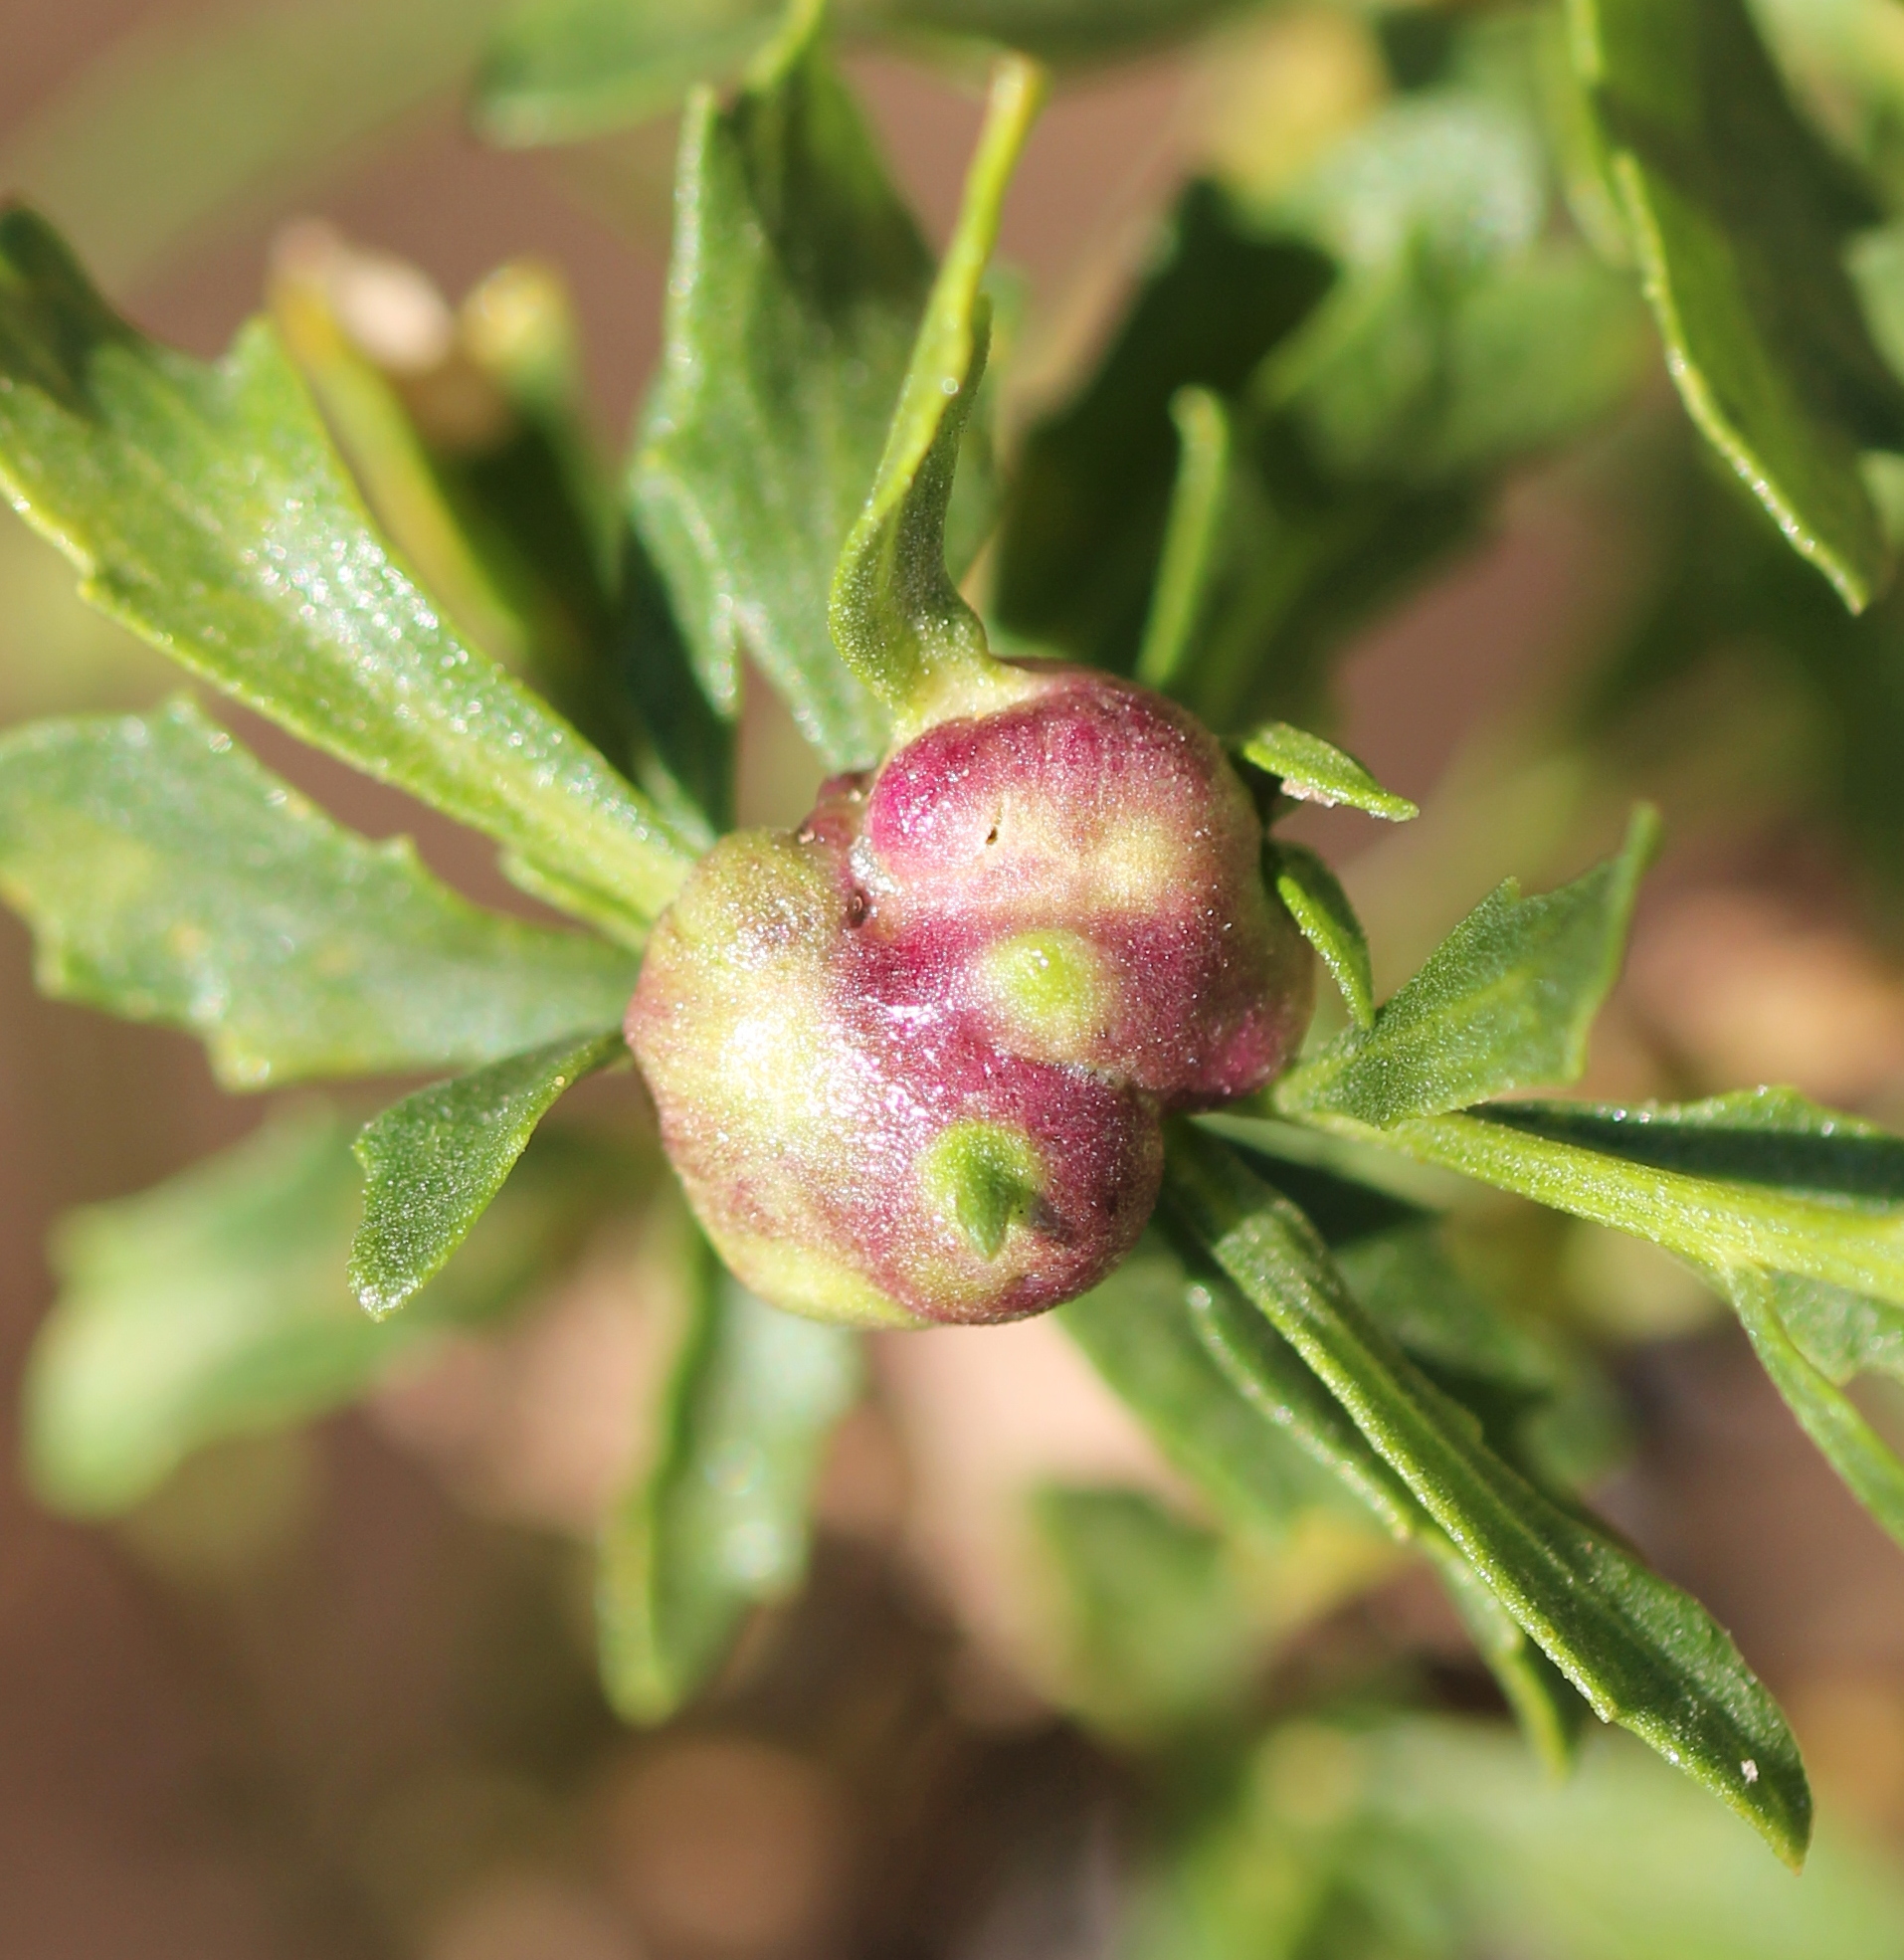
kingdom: Animalia
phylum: Arthropoda
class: Insecta
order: Diptera
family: Cecidomyiidae
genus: Rhopalomyia
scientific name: Rhopalomyia californica
